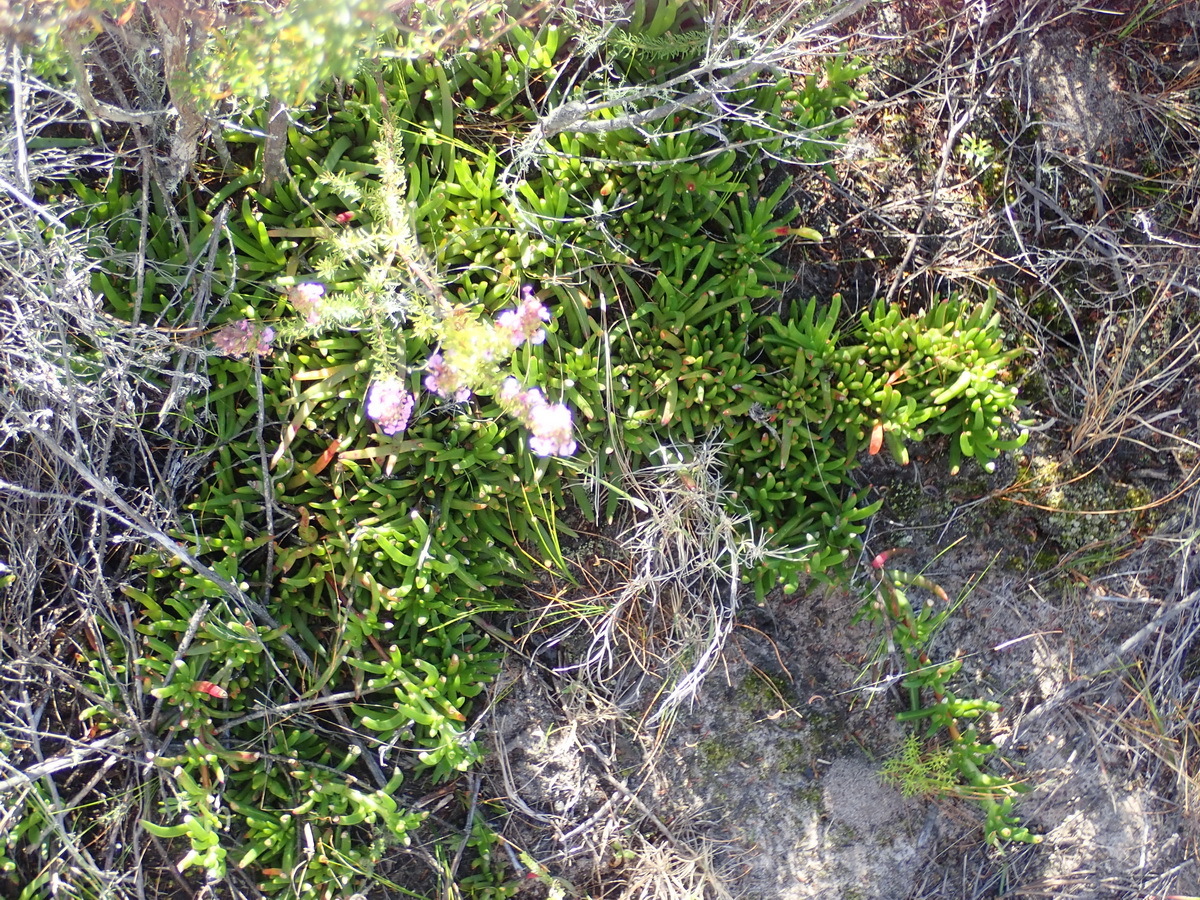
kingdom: Plantae
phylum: Tracheophyta
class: Magnoliopsida
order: Caryophyllales
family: Aizoaceae
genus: Ruschia
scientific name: Ruschia duthiae
